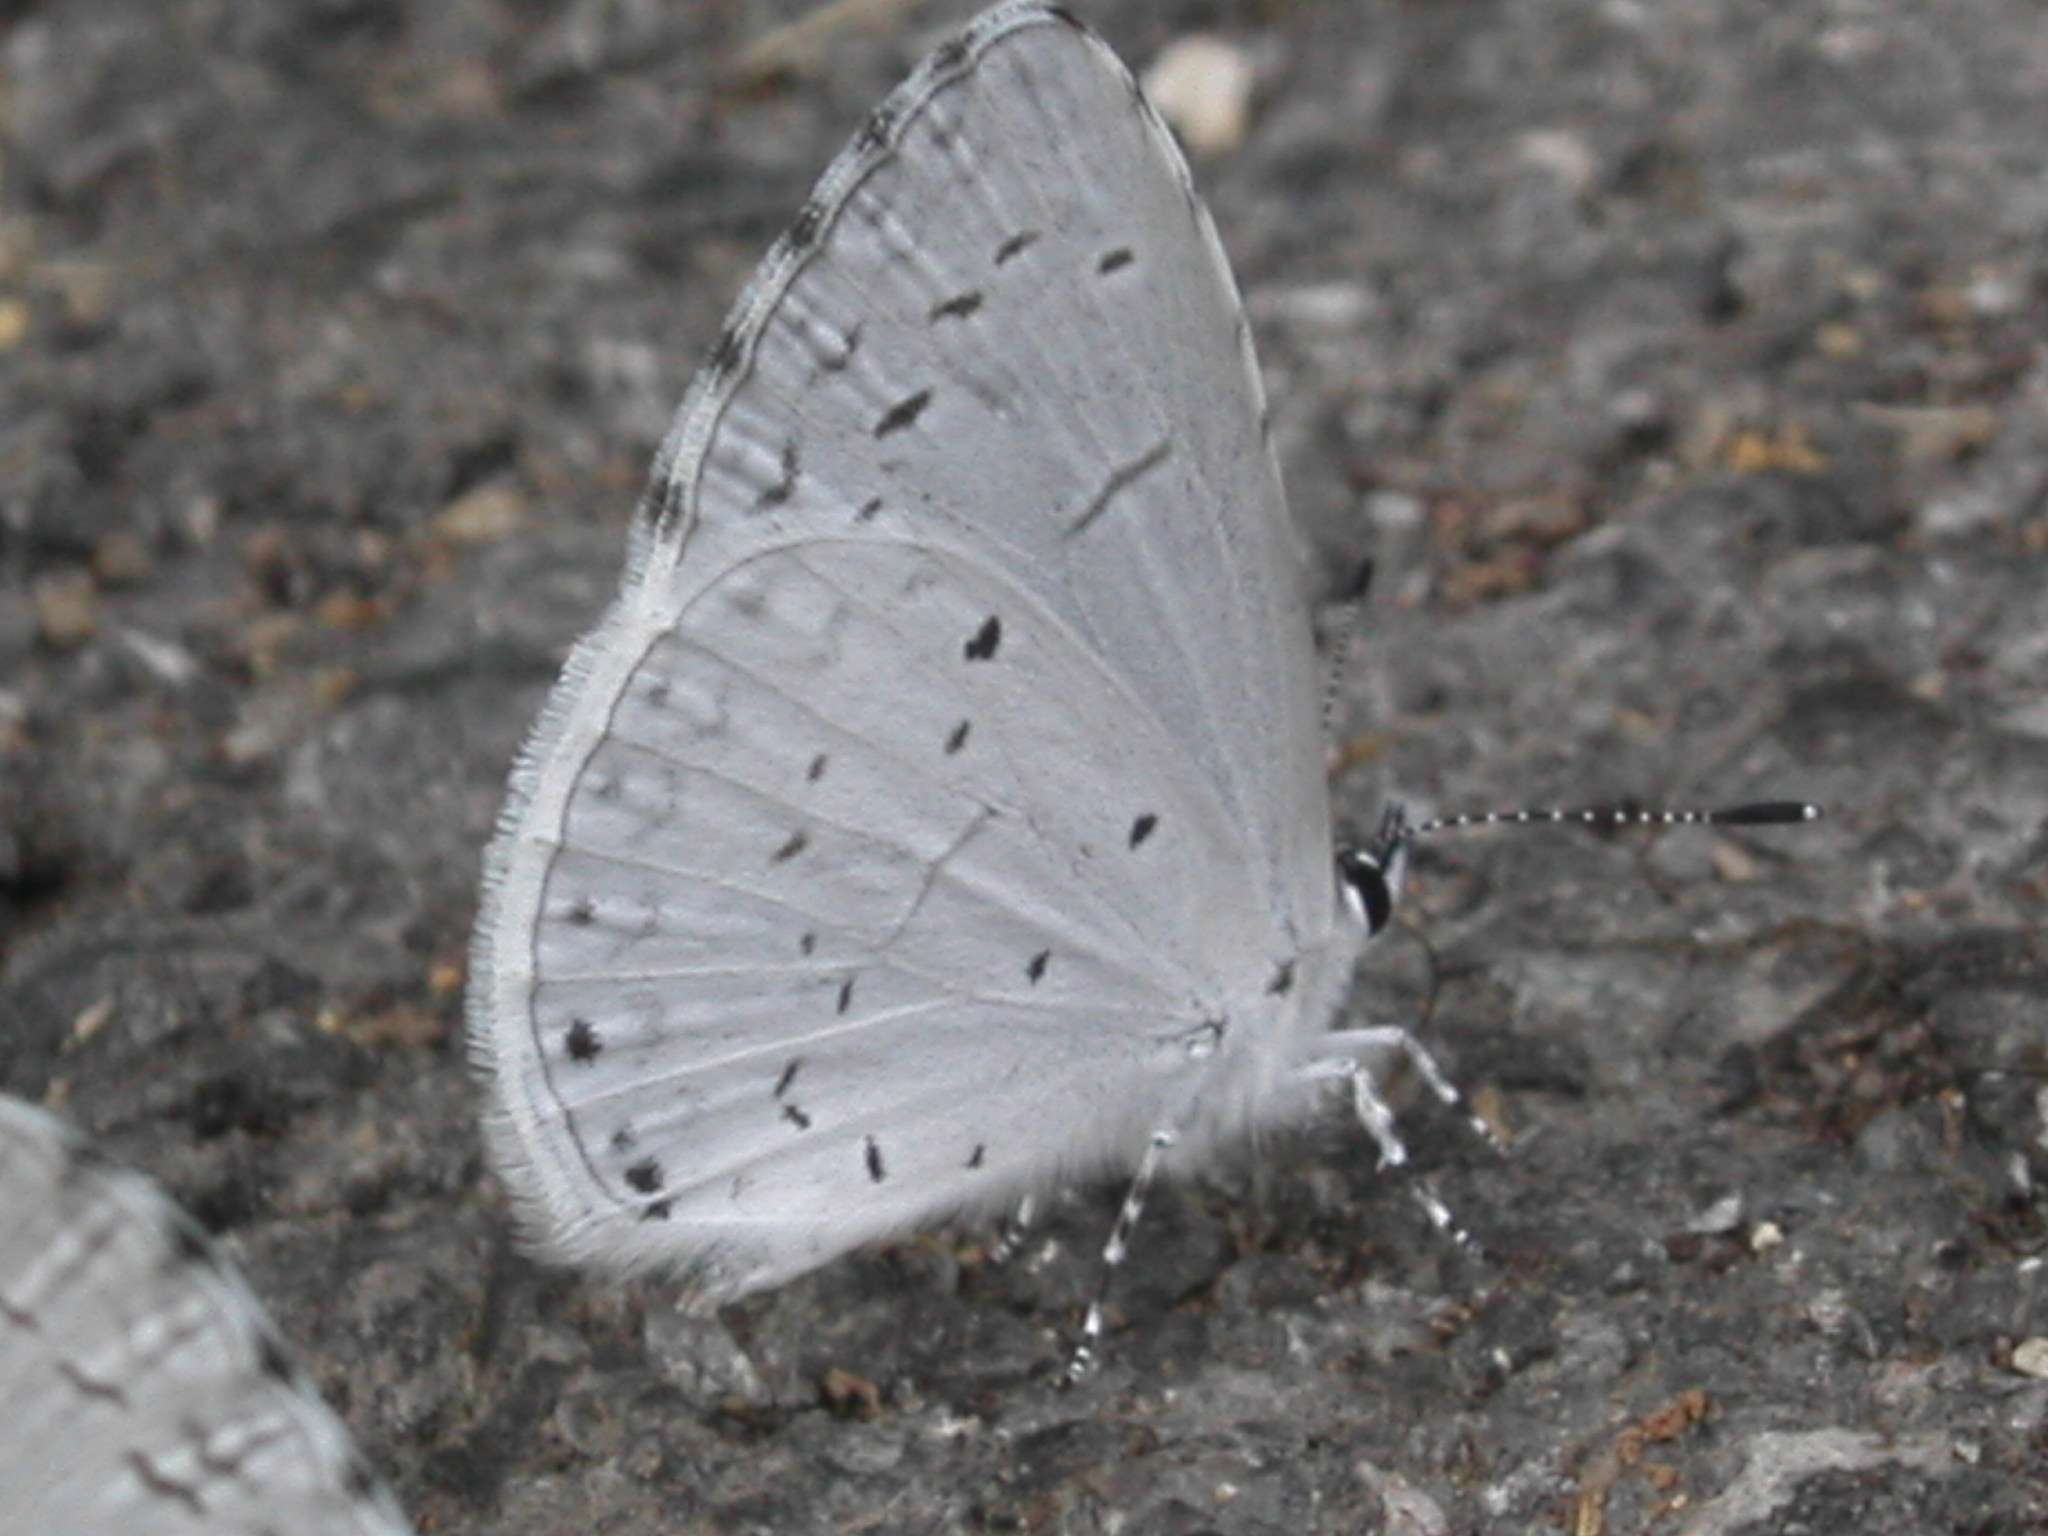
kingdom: Animalia
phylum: Arthropoda
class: Insecta
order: Lepidoptera
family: Lycaenidae
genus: Cyaniris
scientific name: Cyaniris neglecta
